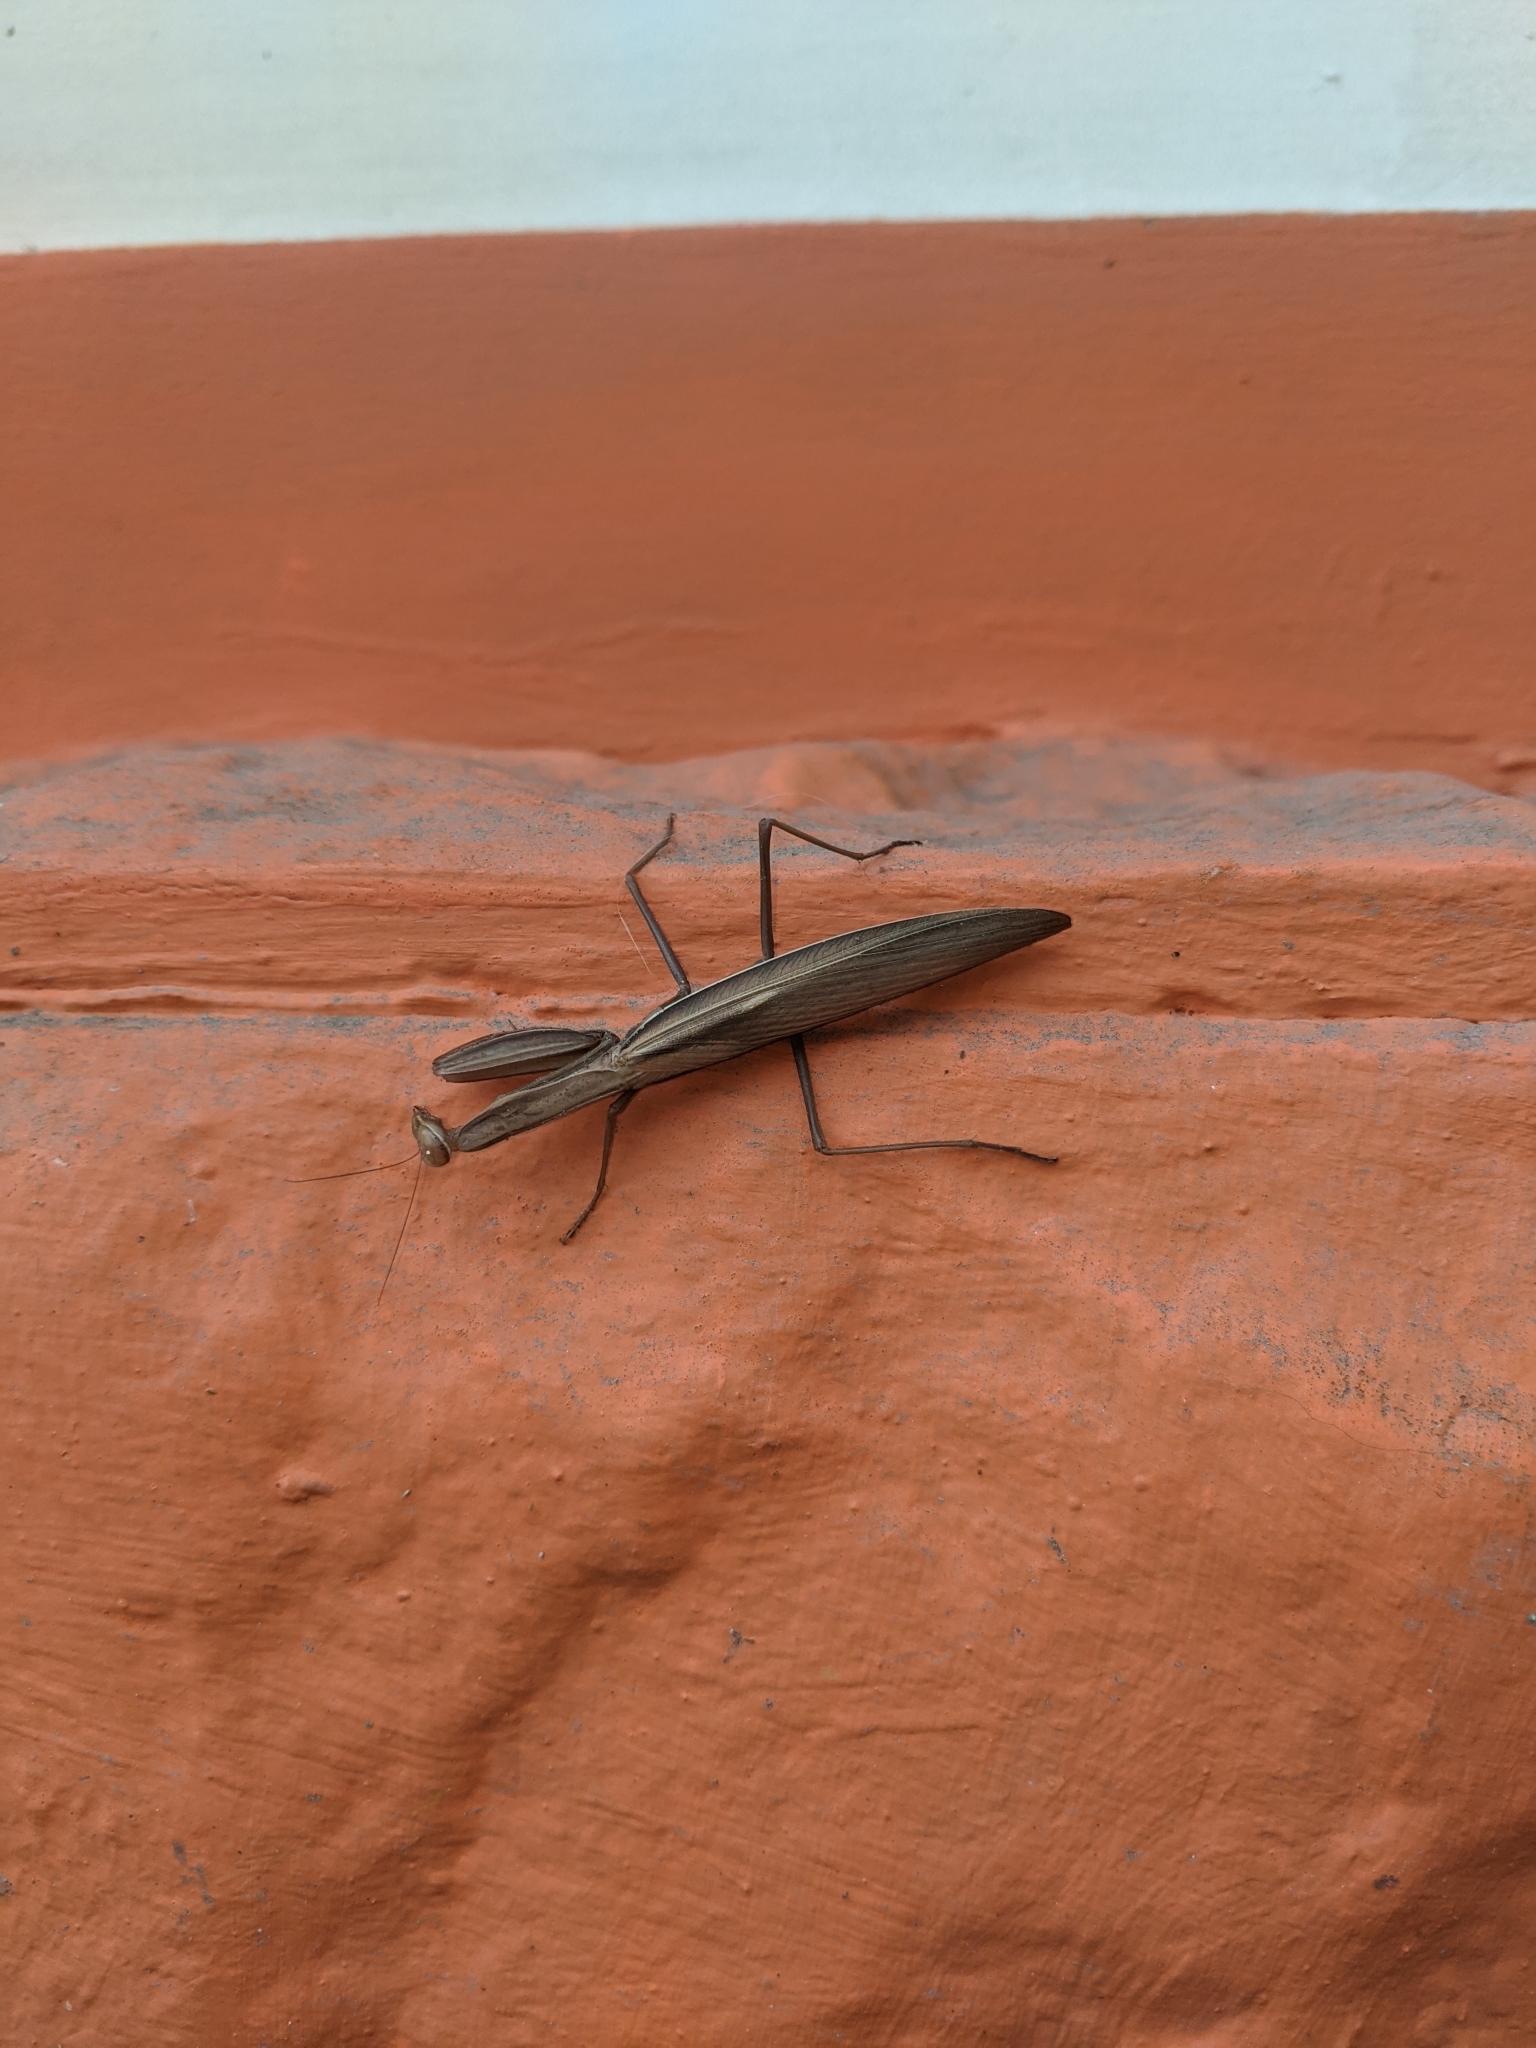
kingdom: Animalia
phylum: Arthropoda
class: Insecta
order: Mantodea
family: Mantidae
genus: Mantis
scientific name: Mantis religiosa
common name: Praying mantis
